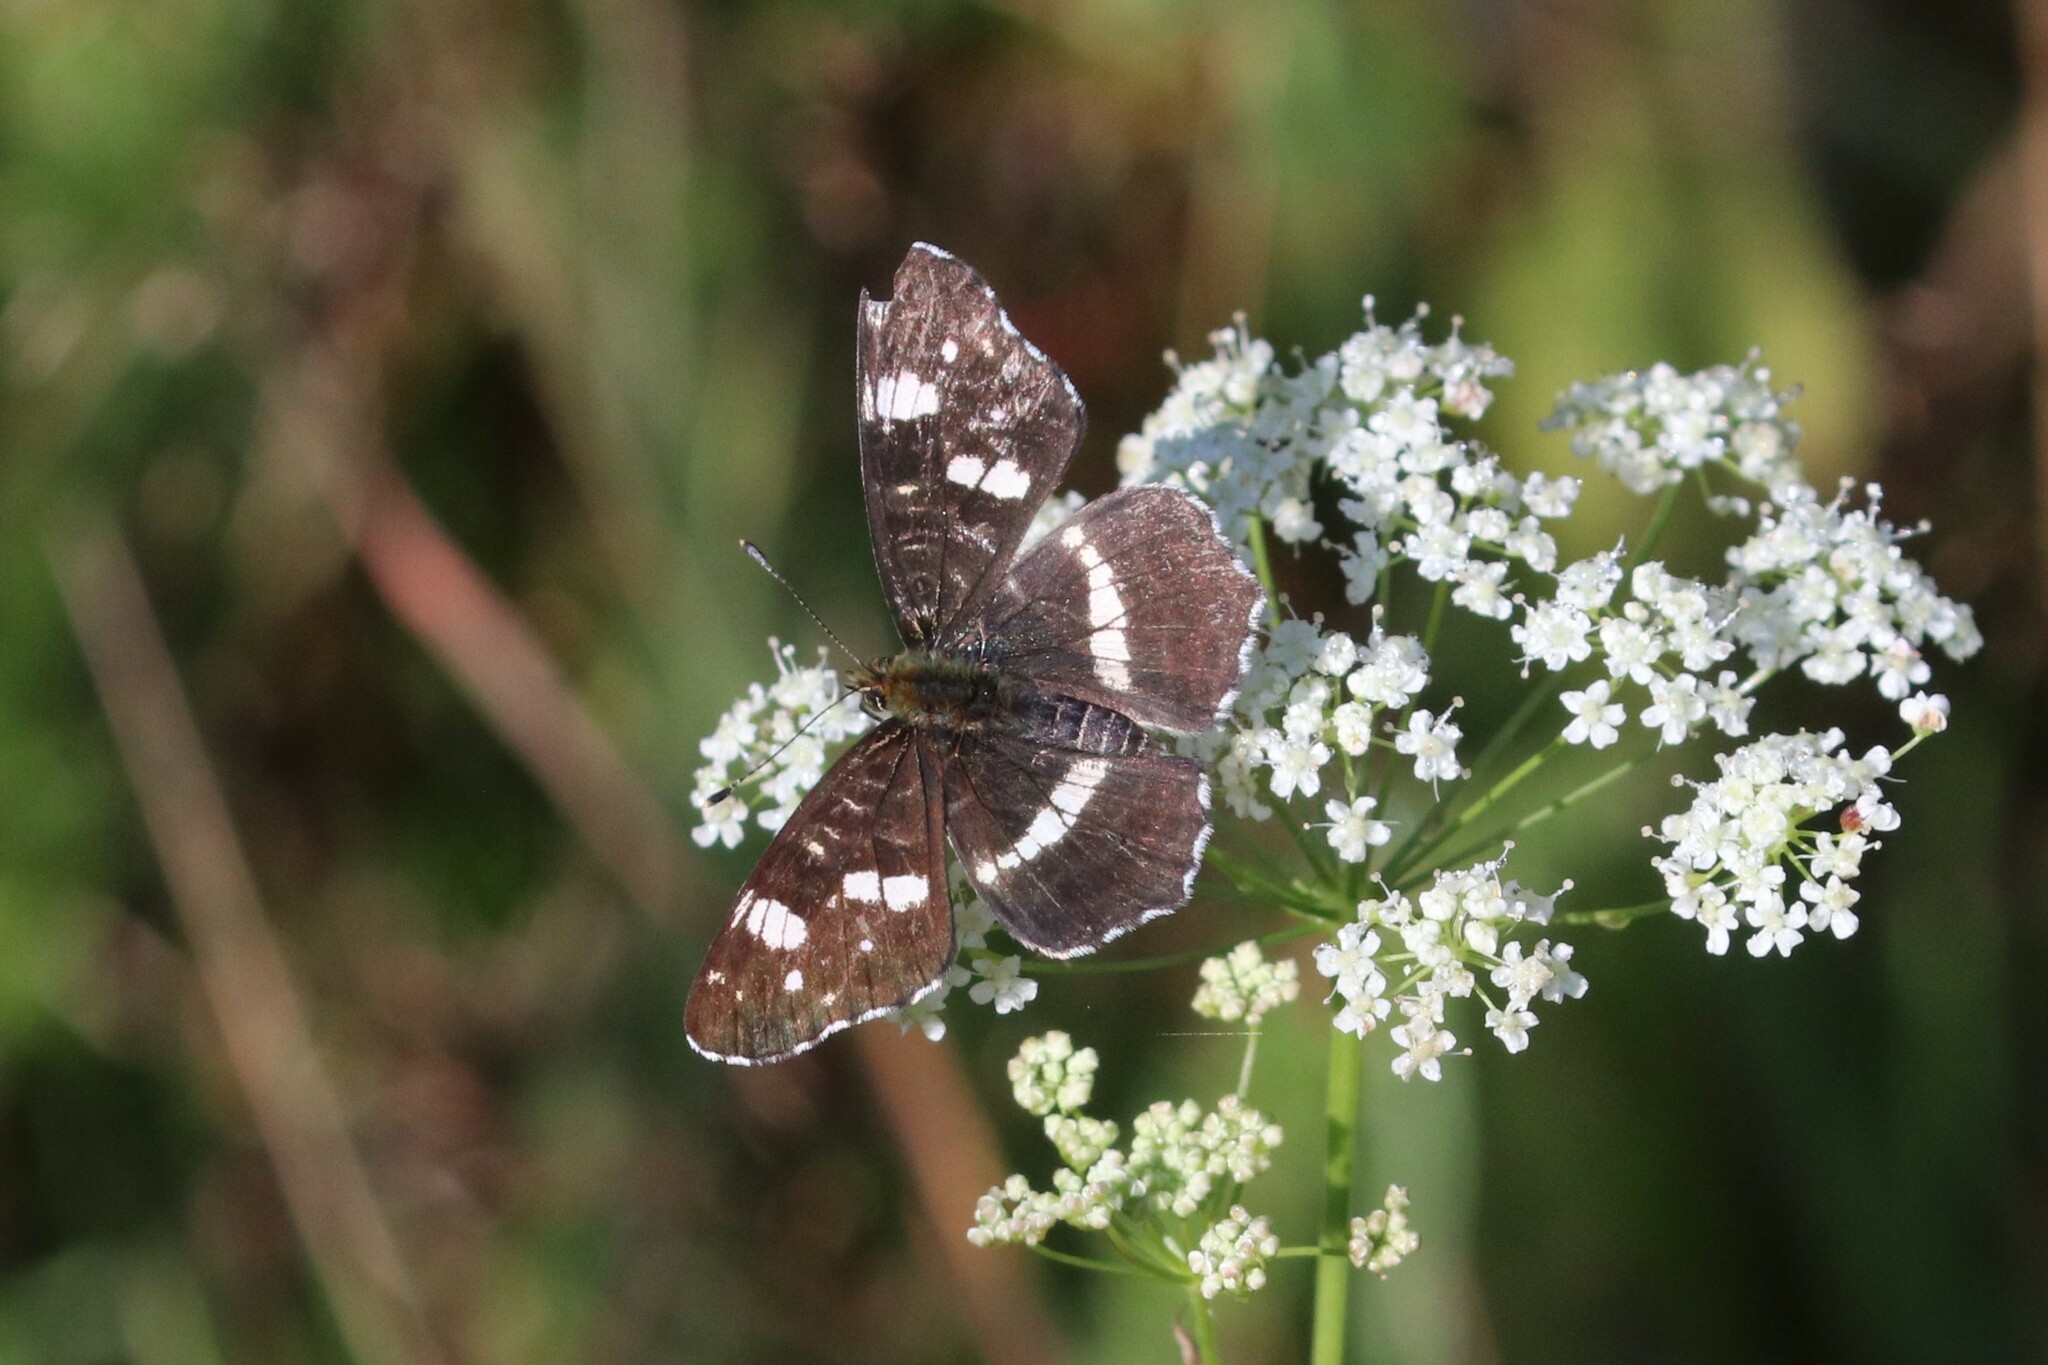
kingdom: Animalia
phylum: Arthropoda
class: Insecta
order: Lepidoptera
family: Nymphalidae
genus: Araschnia
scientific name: Araschnia levana
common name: Map butterfly
